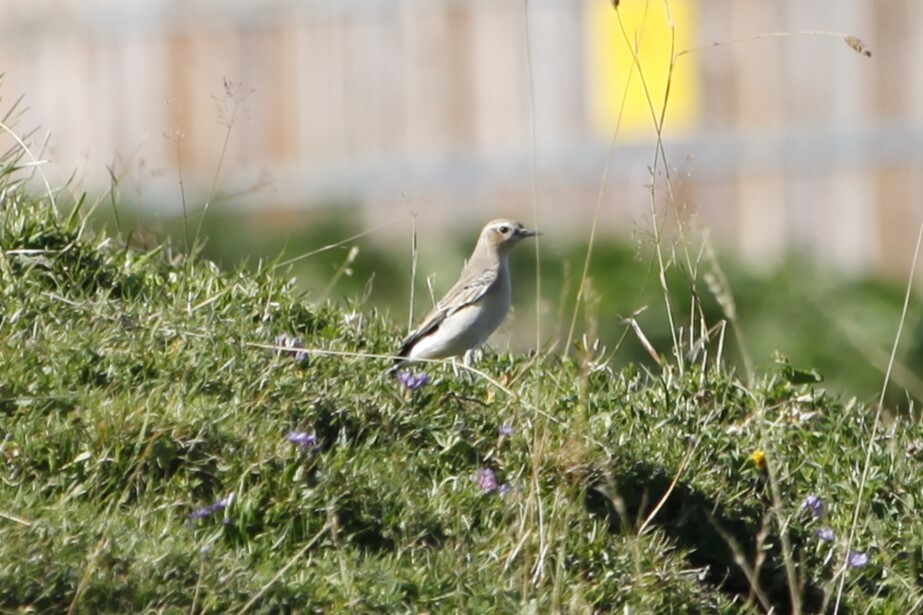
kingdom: Animalia
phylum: Chordata
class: Aves
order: Passeriformes
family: Muscicapidae
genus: Oenanthe
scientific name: Oenanthe oenanthe
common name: Northern wheatear
